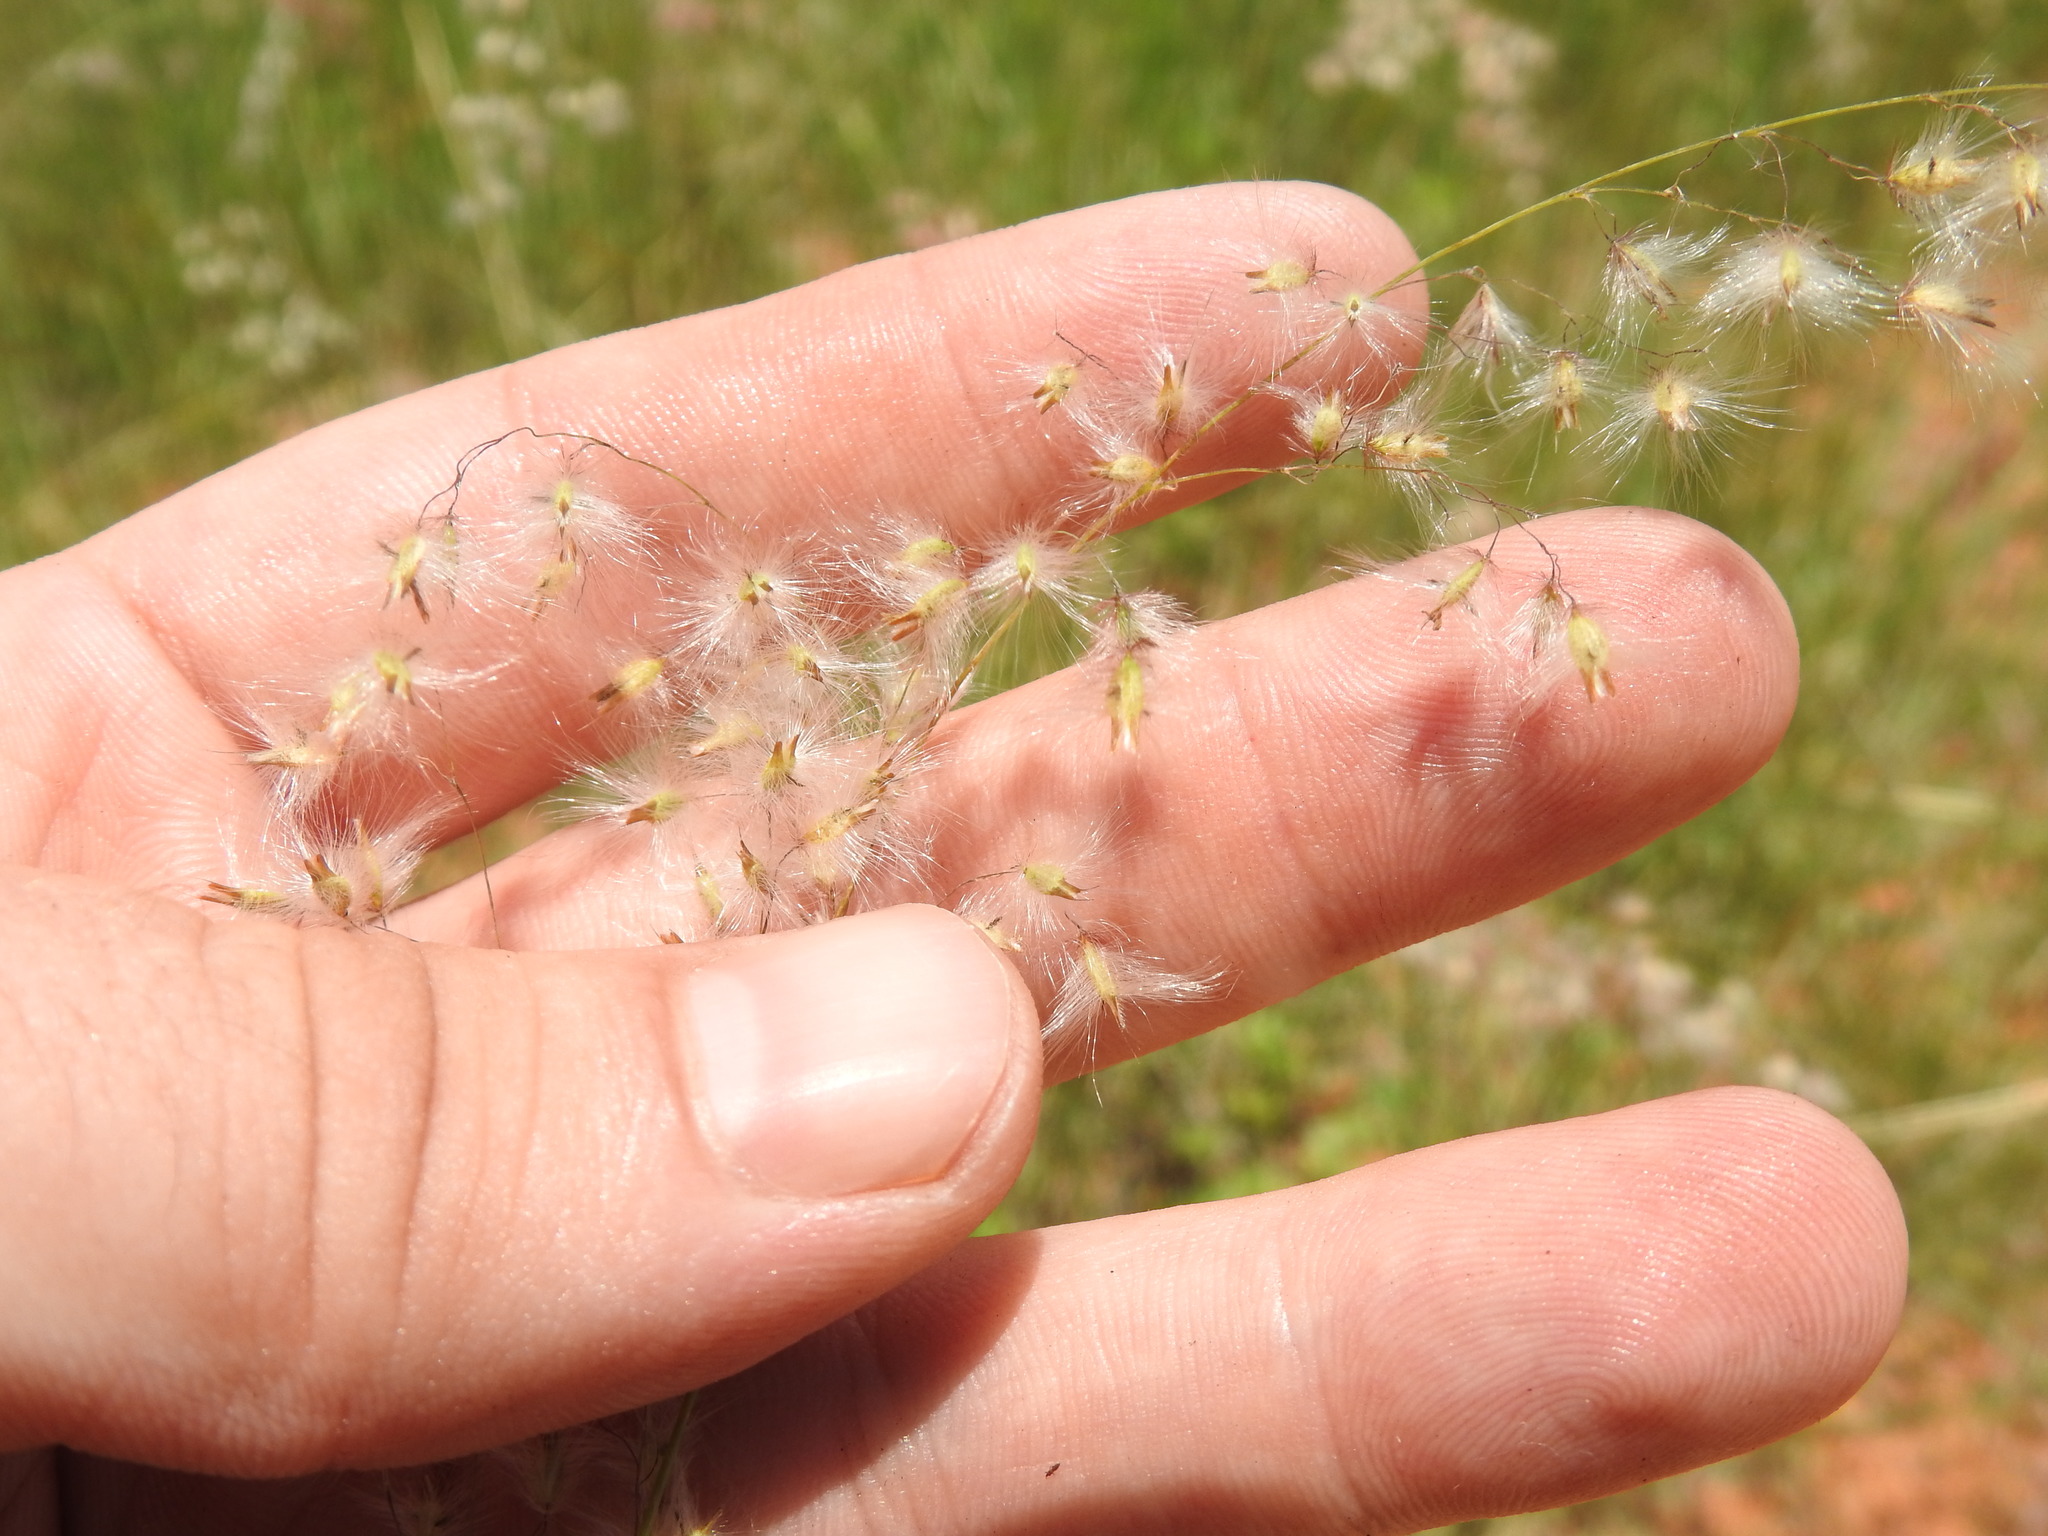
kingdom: Plantae
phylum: Tracheophyta
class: Liliopsida
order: Poales
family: Poaceae
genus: Melinis
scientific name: Melinis repens
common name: Rose natal grass
